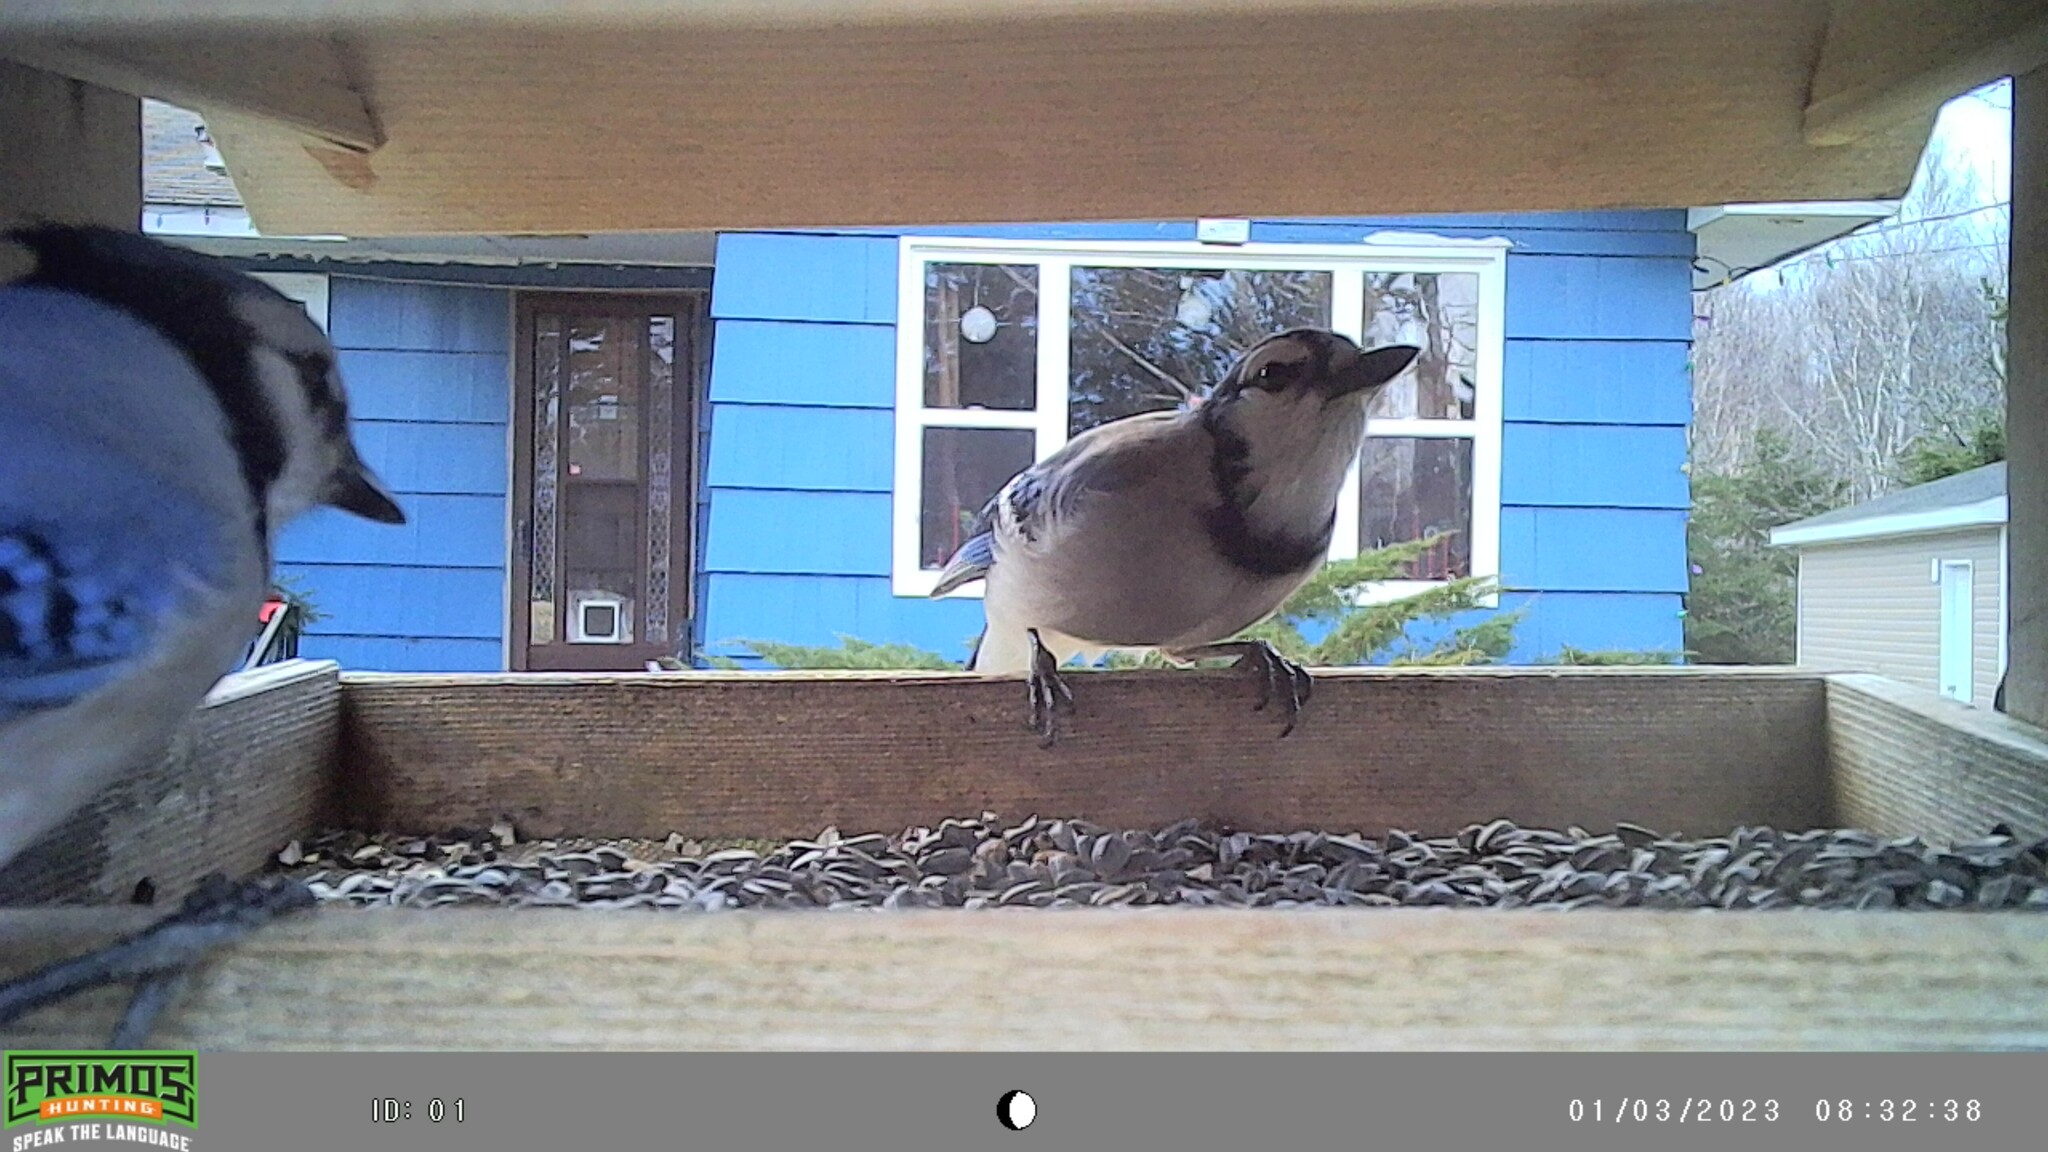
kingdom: Animalia
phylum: Chordata
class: Aves
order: Passeriformes
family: Corvidae
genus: Cyanocitta
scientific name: Cyanocitta cristata
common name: Blue jay
